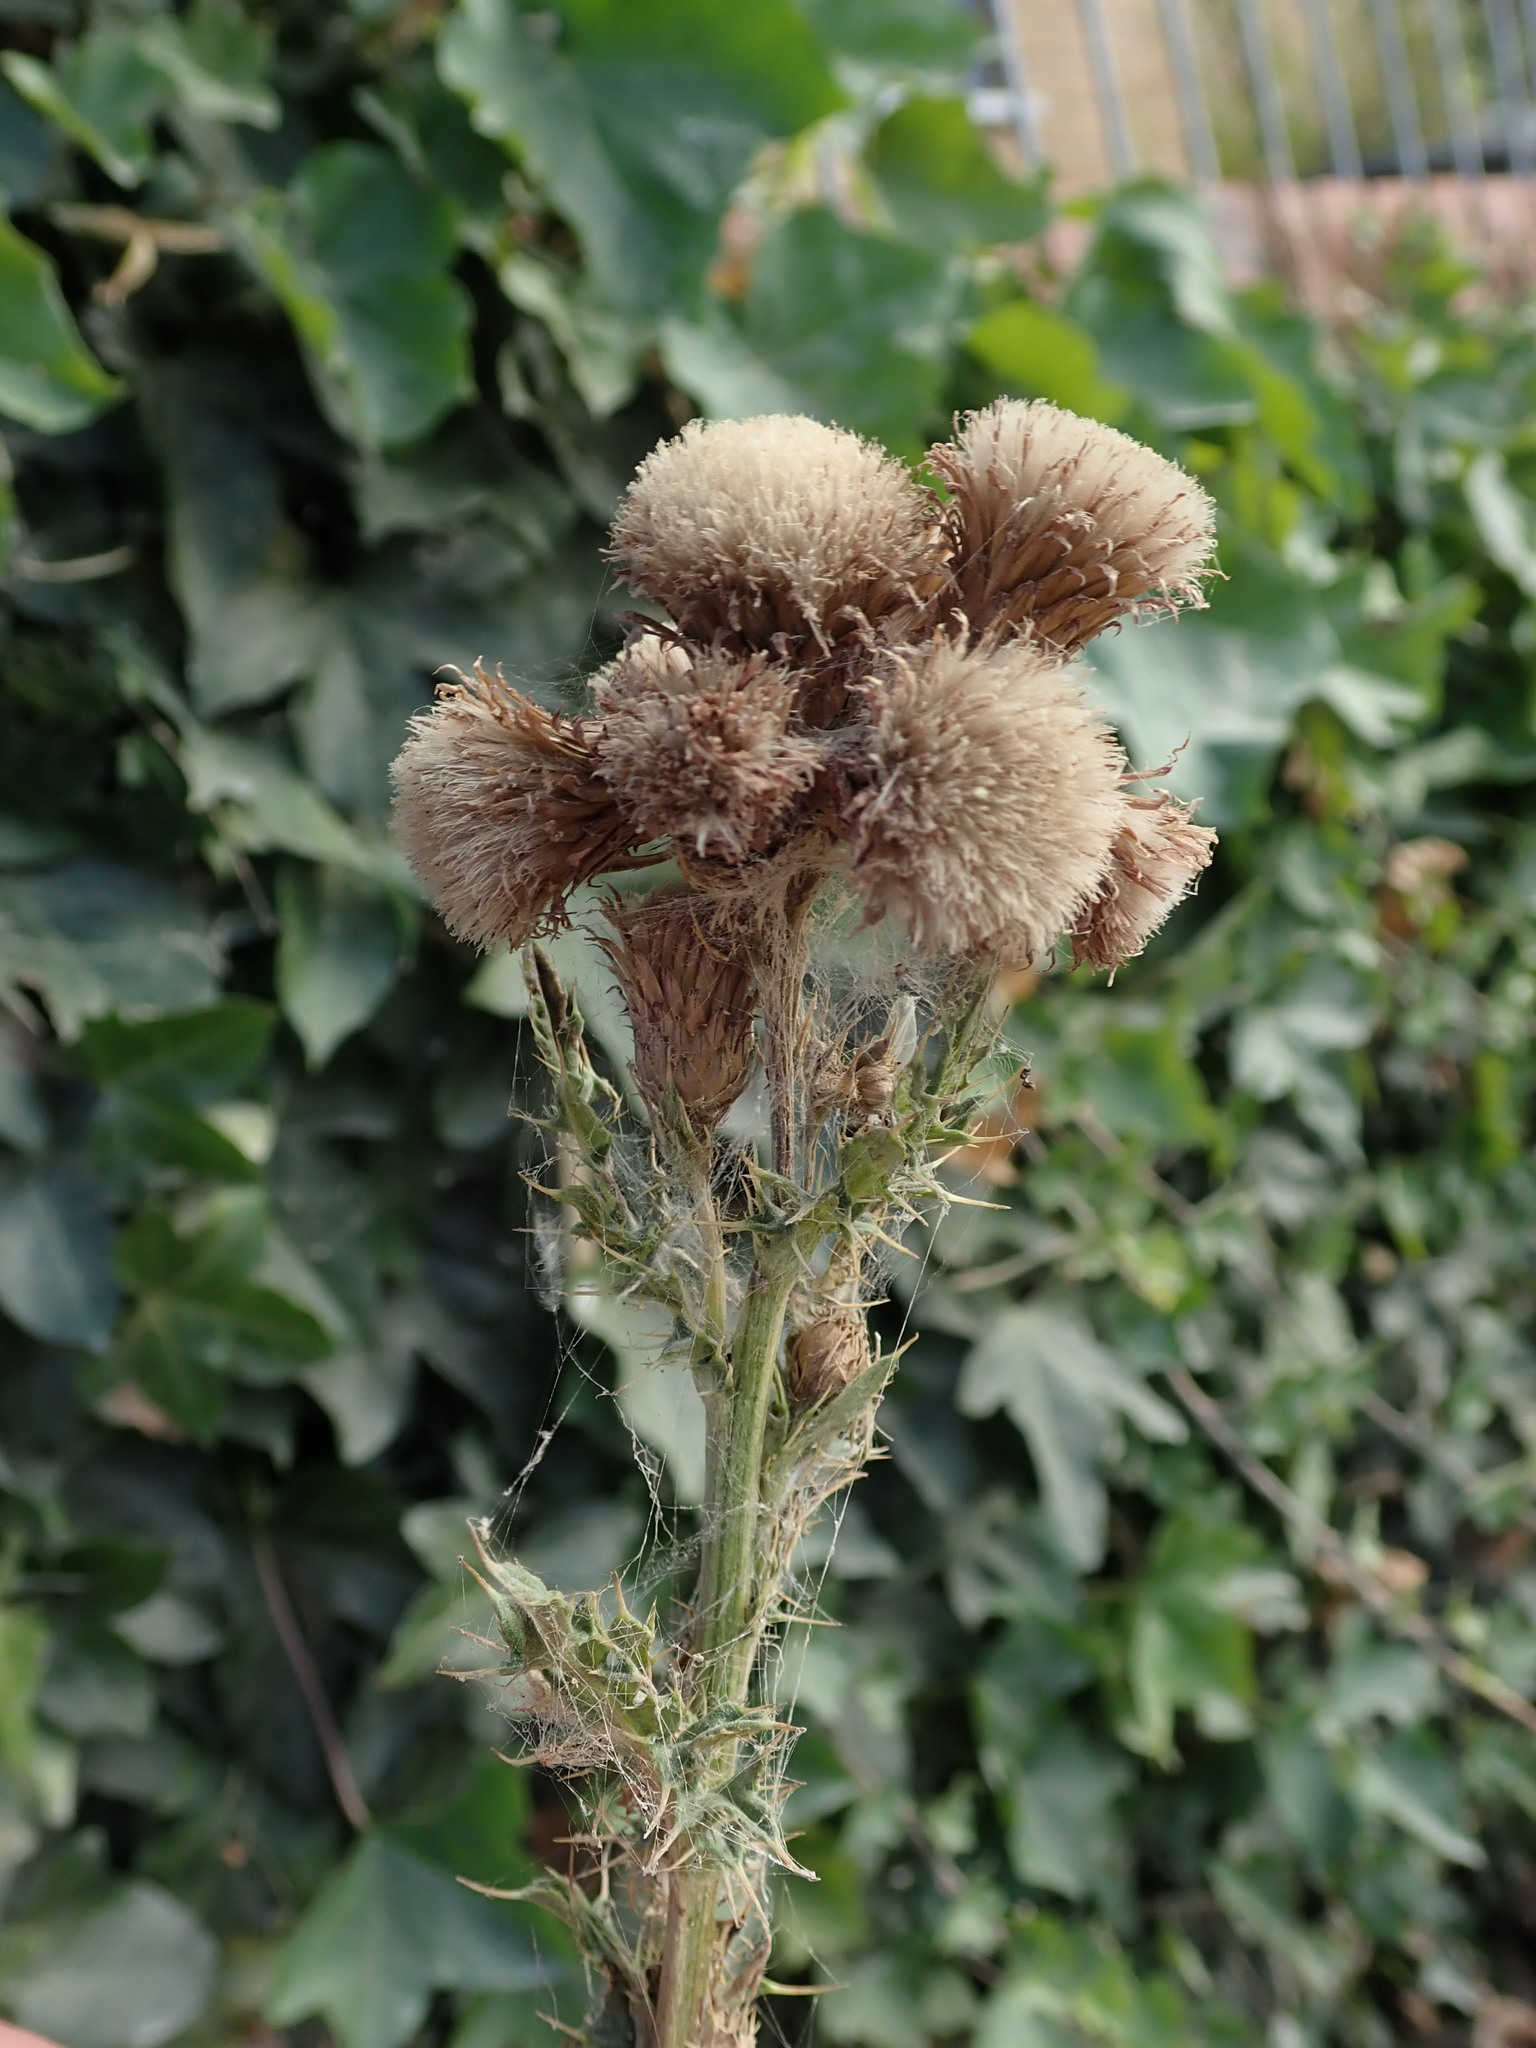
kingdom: Plantae
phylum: Tracheophyta
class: Magnoliopsida
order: Asterales
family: Asteraceae
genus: Cirsium
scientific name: Cirsium arvense
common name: Creeping thistle
